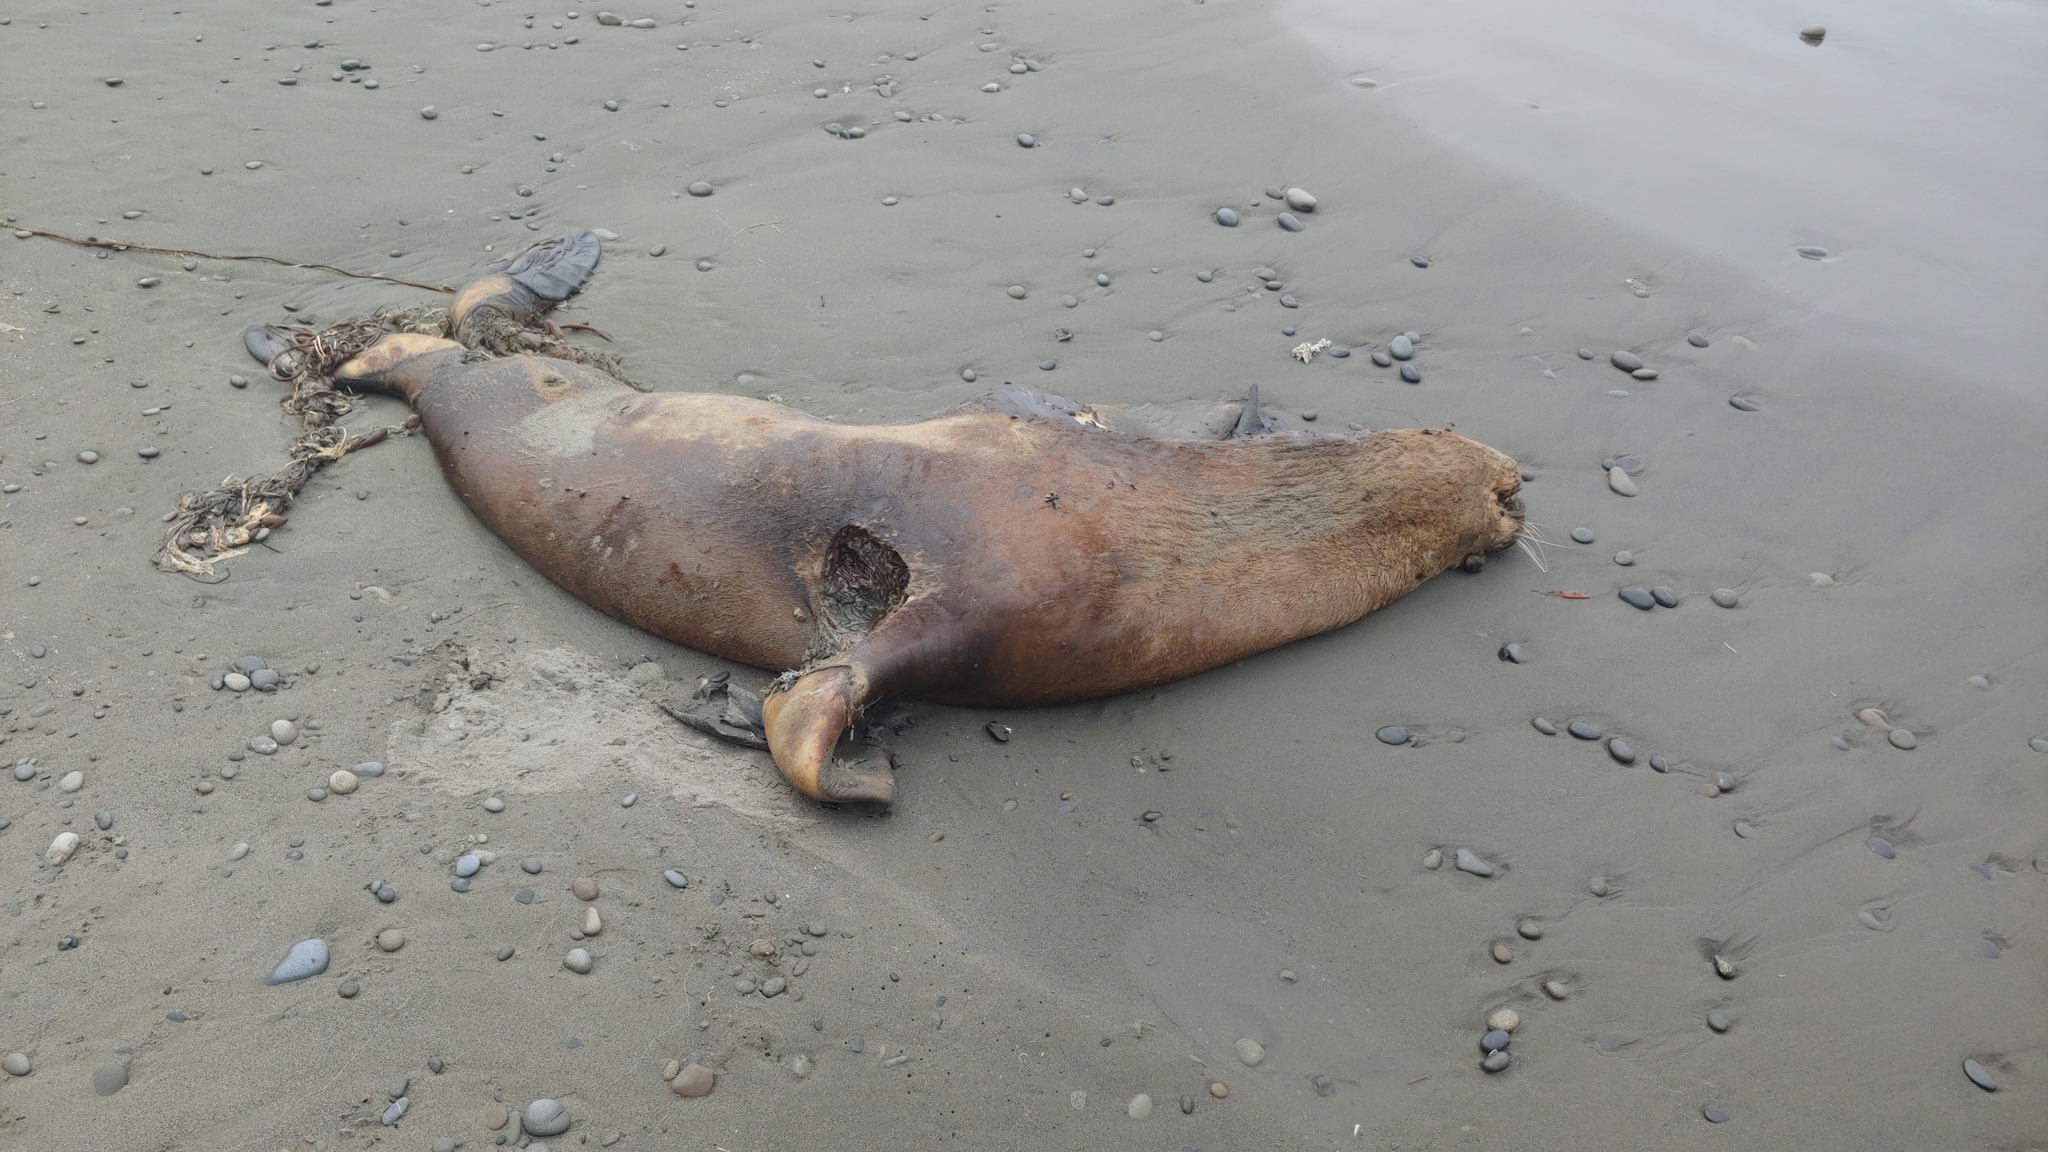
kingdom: Animalia
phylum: Chordata
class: Mammalia
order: Carnivora
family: Otariidae
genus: Eumetopias
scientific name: Eumetopias jubatus
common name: Steller sea lion
